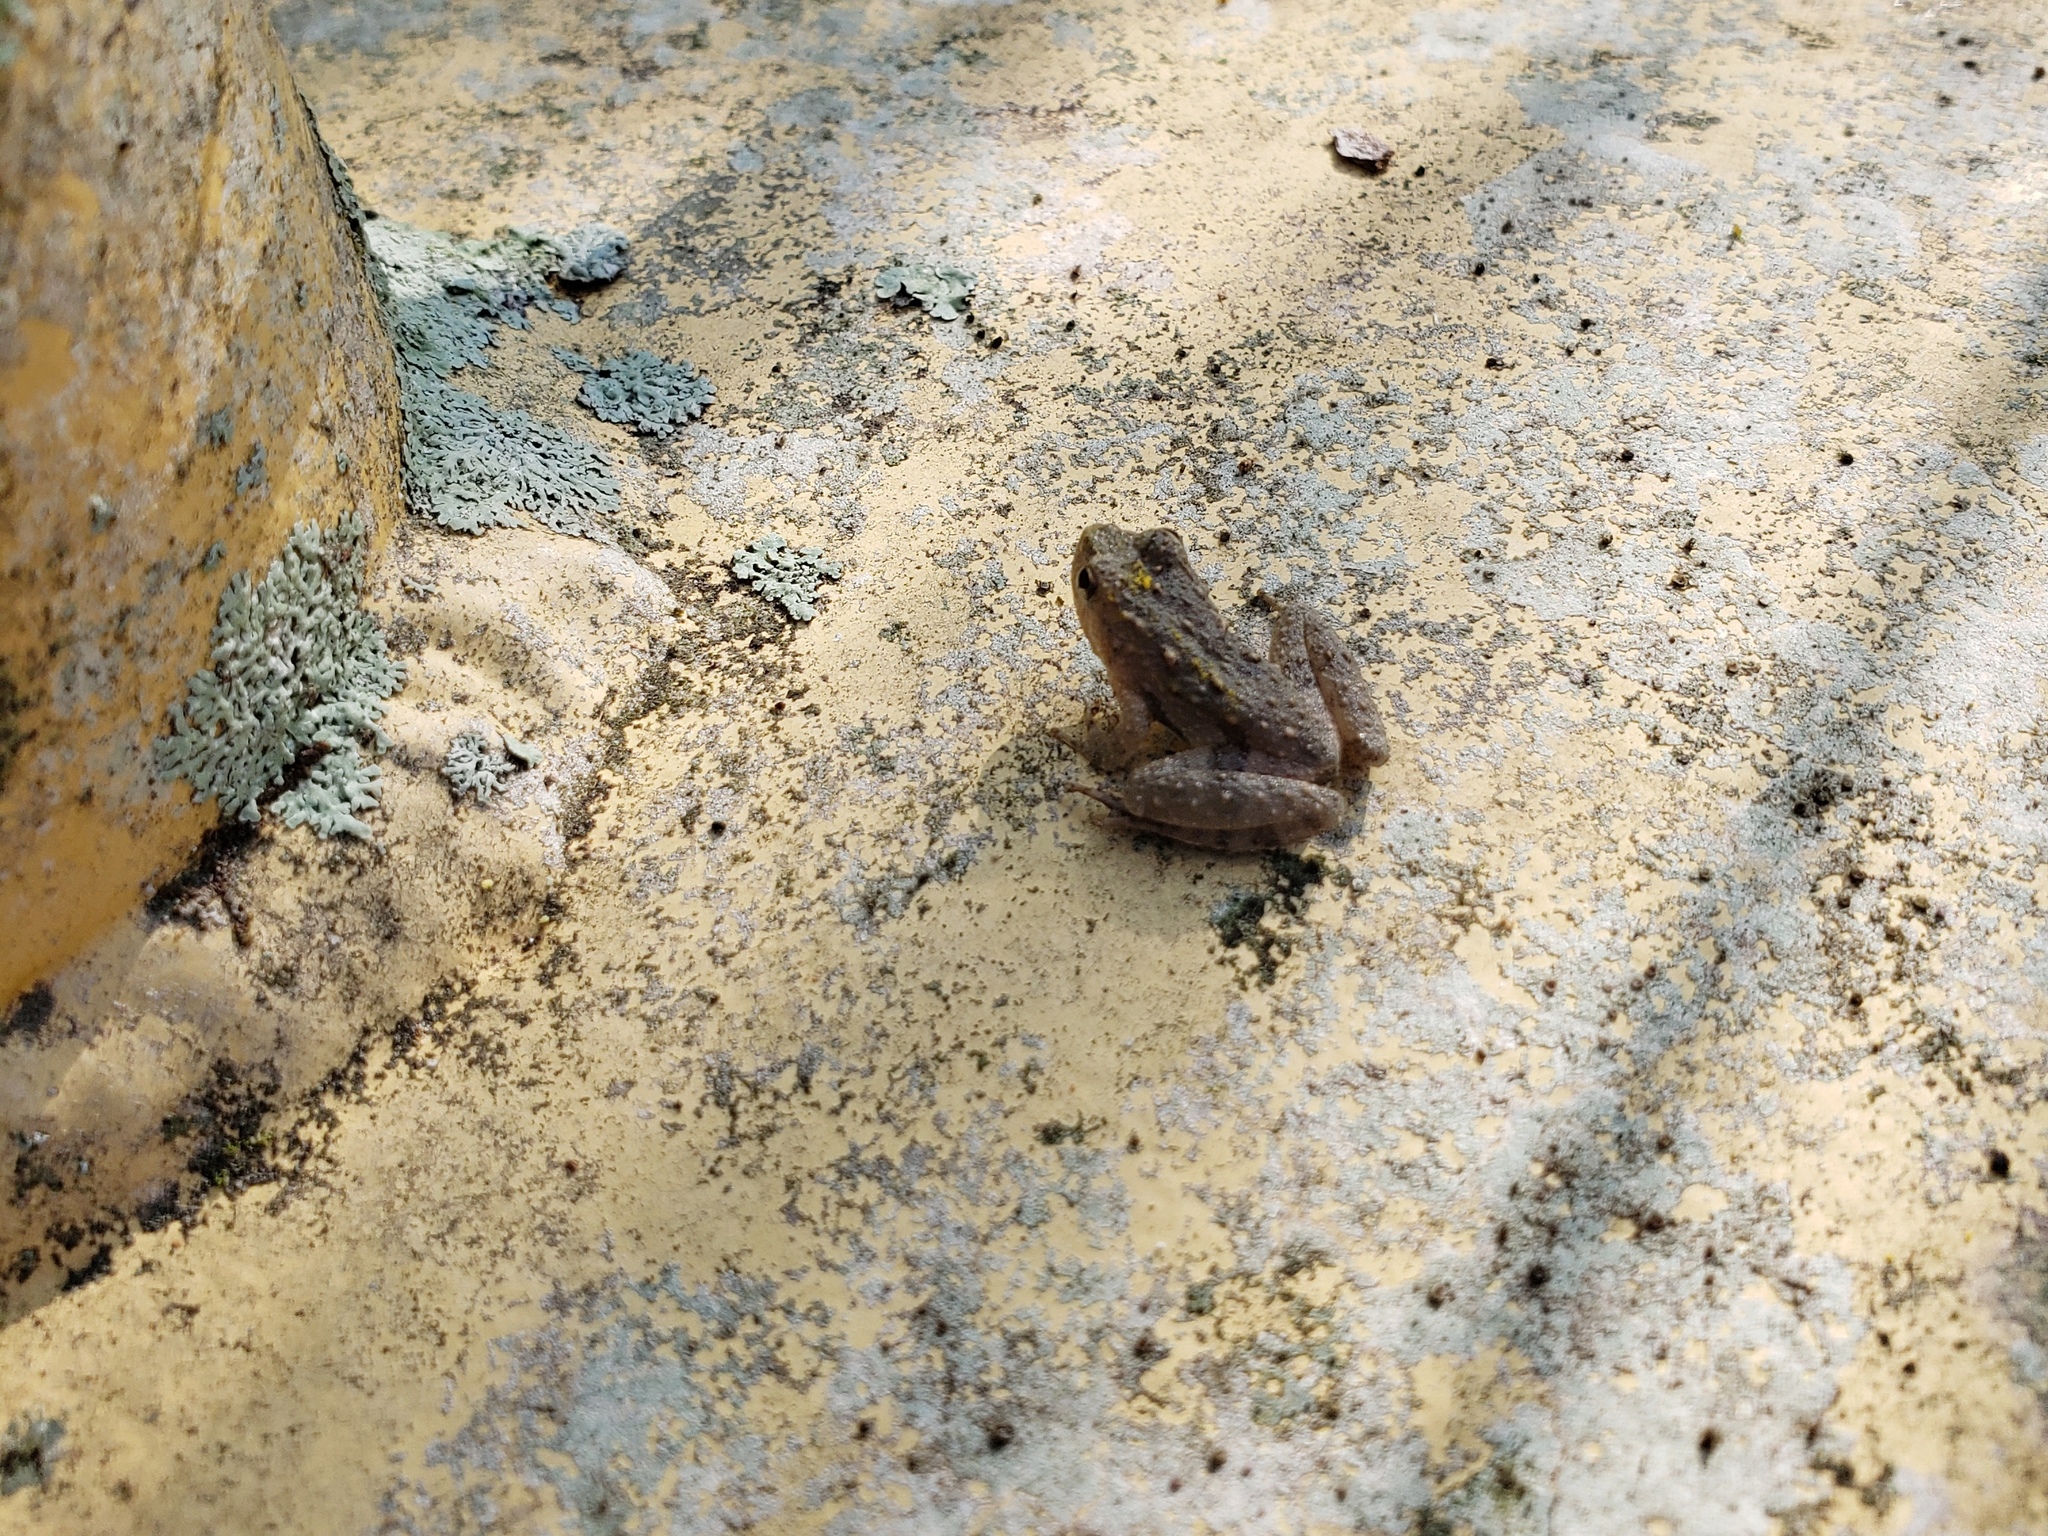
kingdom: Animalia
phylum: Chordata
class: Amphibia
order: Anura
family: Hylidae
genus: Acris
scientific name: Acris blanchardi
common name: Blanchard's cricket frog
